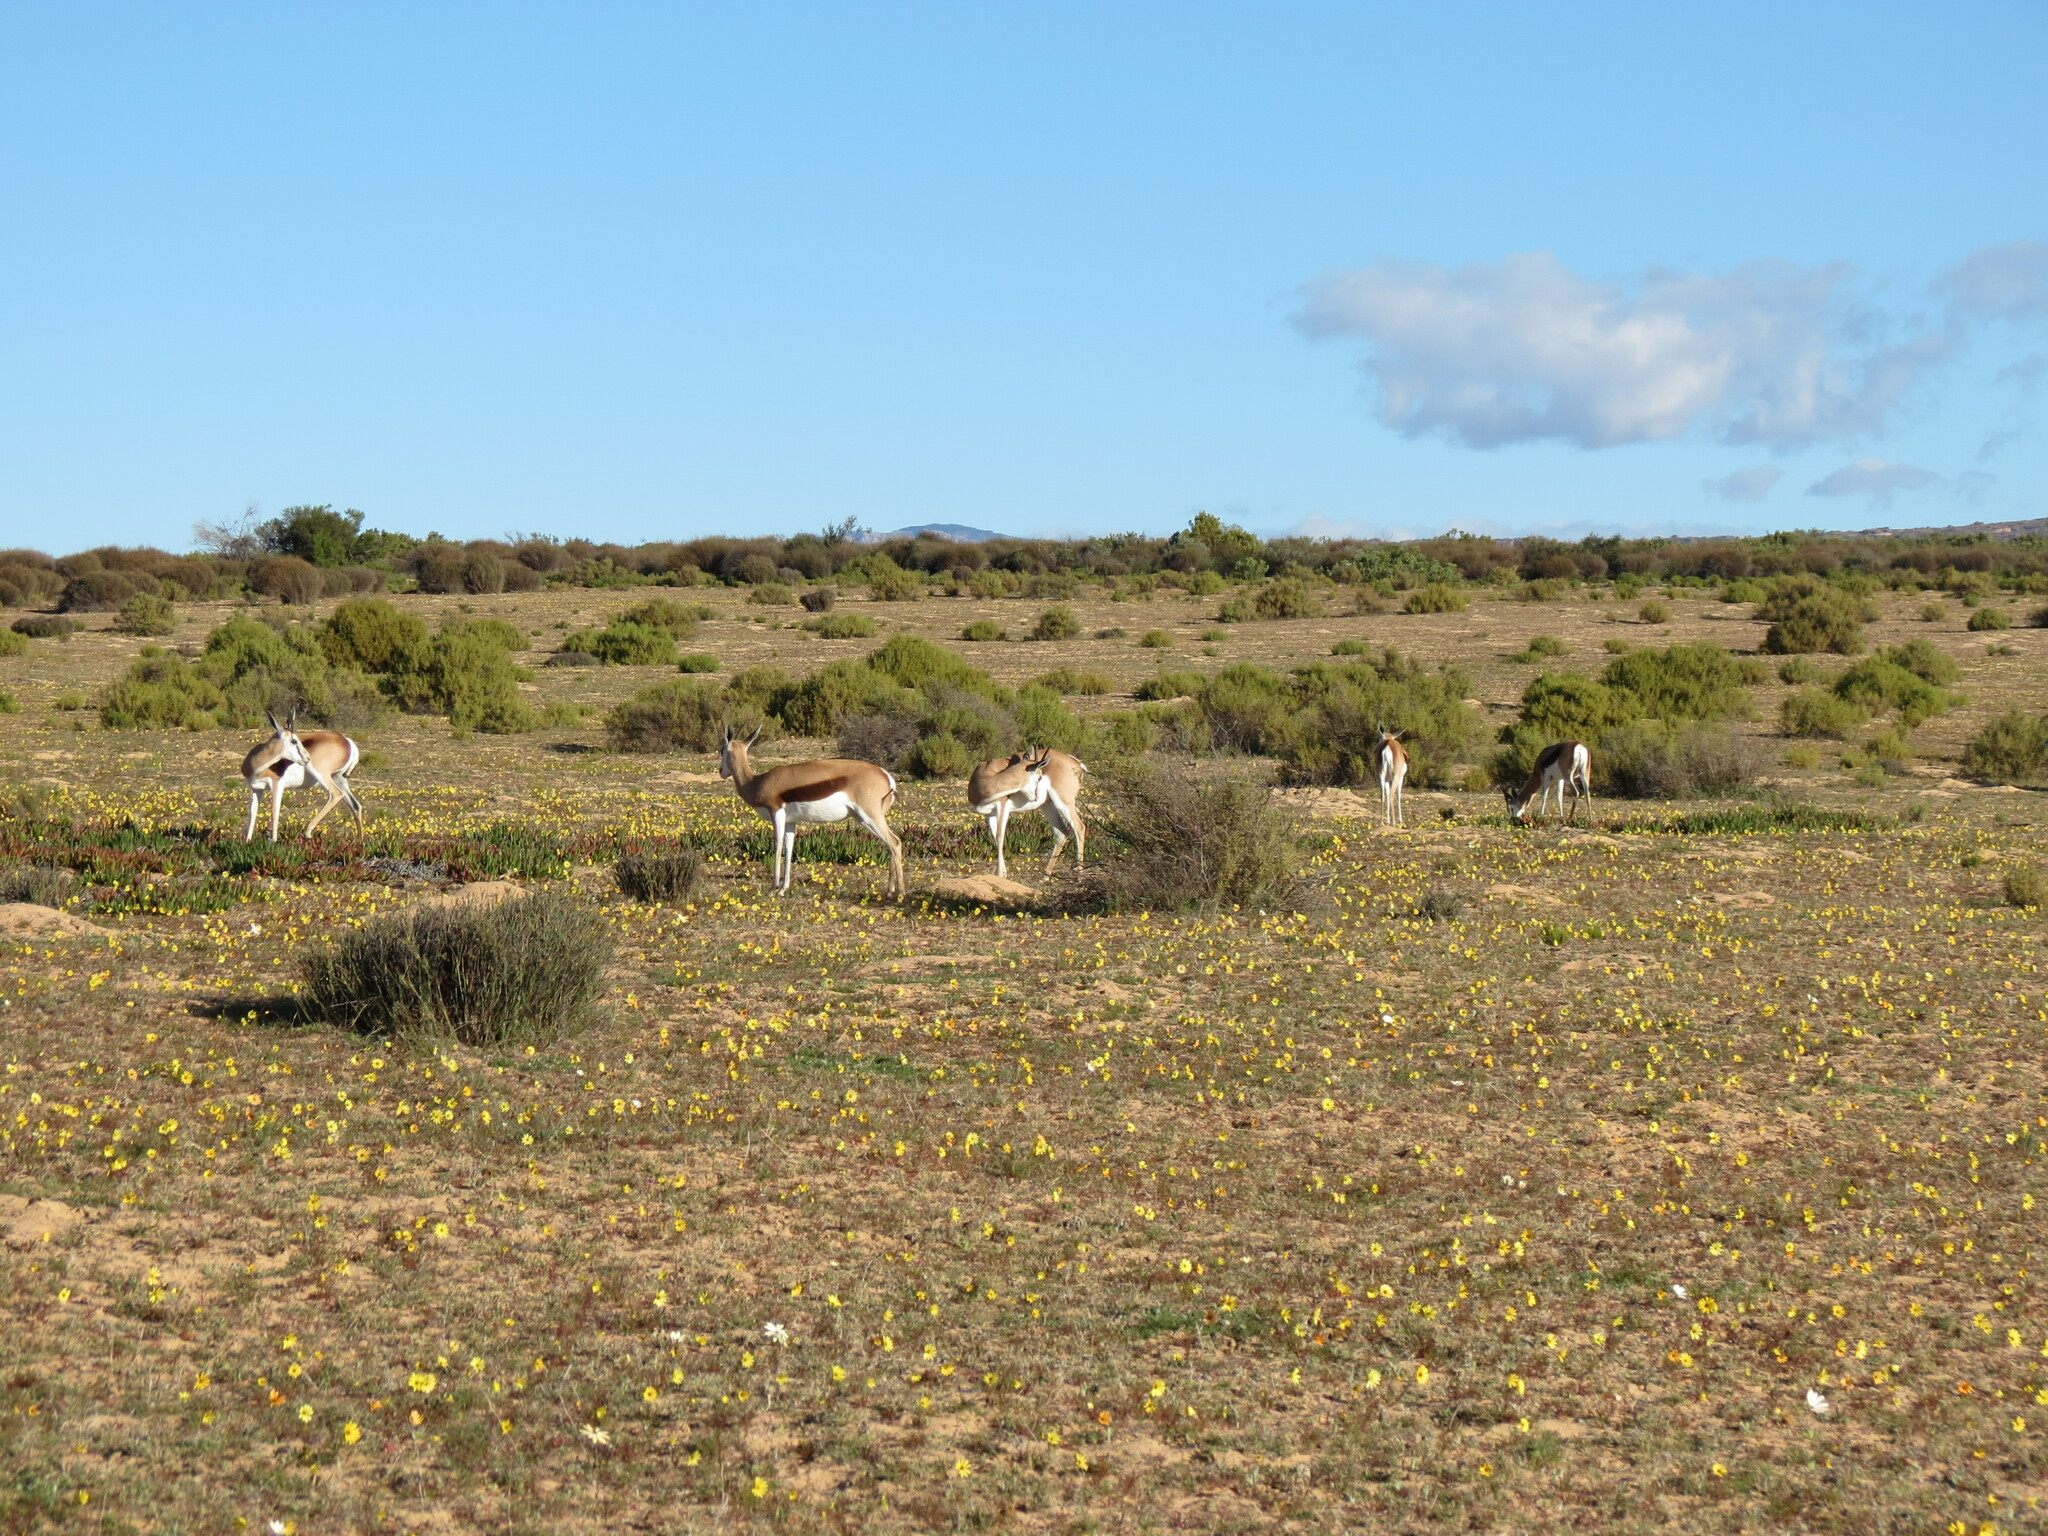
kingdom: Animalia
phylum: Chordata
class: Mammalia
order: Artiodactyla
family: Bovidae
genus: Antidorcas
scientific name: Antidorcas marsupialis
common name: Springbok
